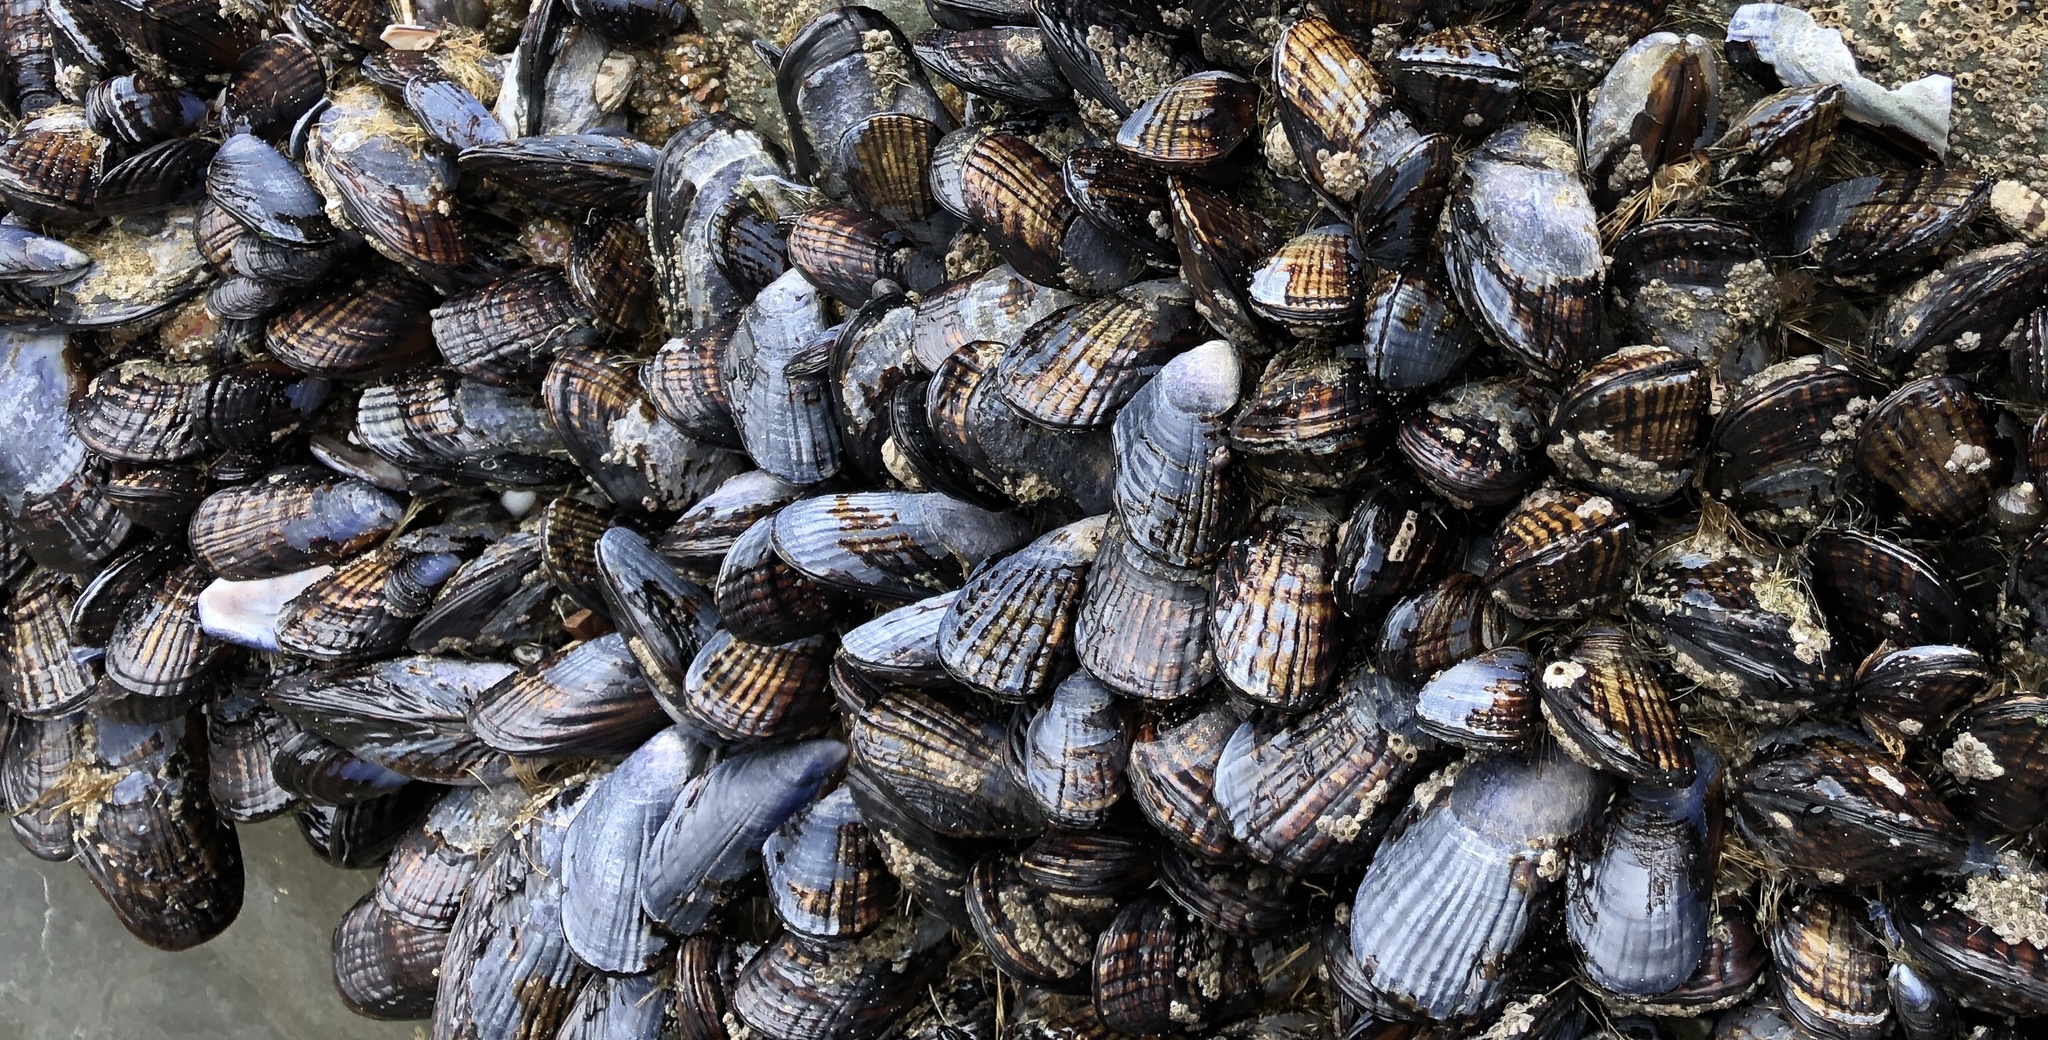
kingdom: Animalia
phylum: Mollusca
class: Bivalvia
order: Mytilida
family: Mytilidae
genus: Mytilus
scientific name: Mytilus californianus
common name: California mussel
